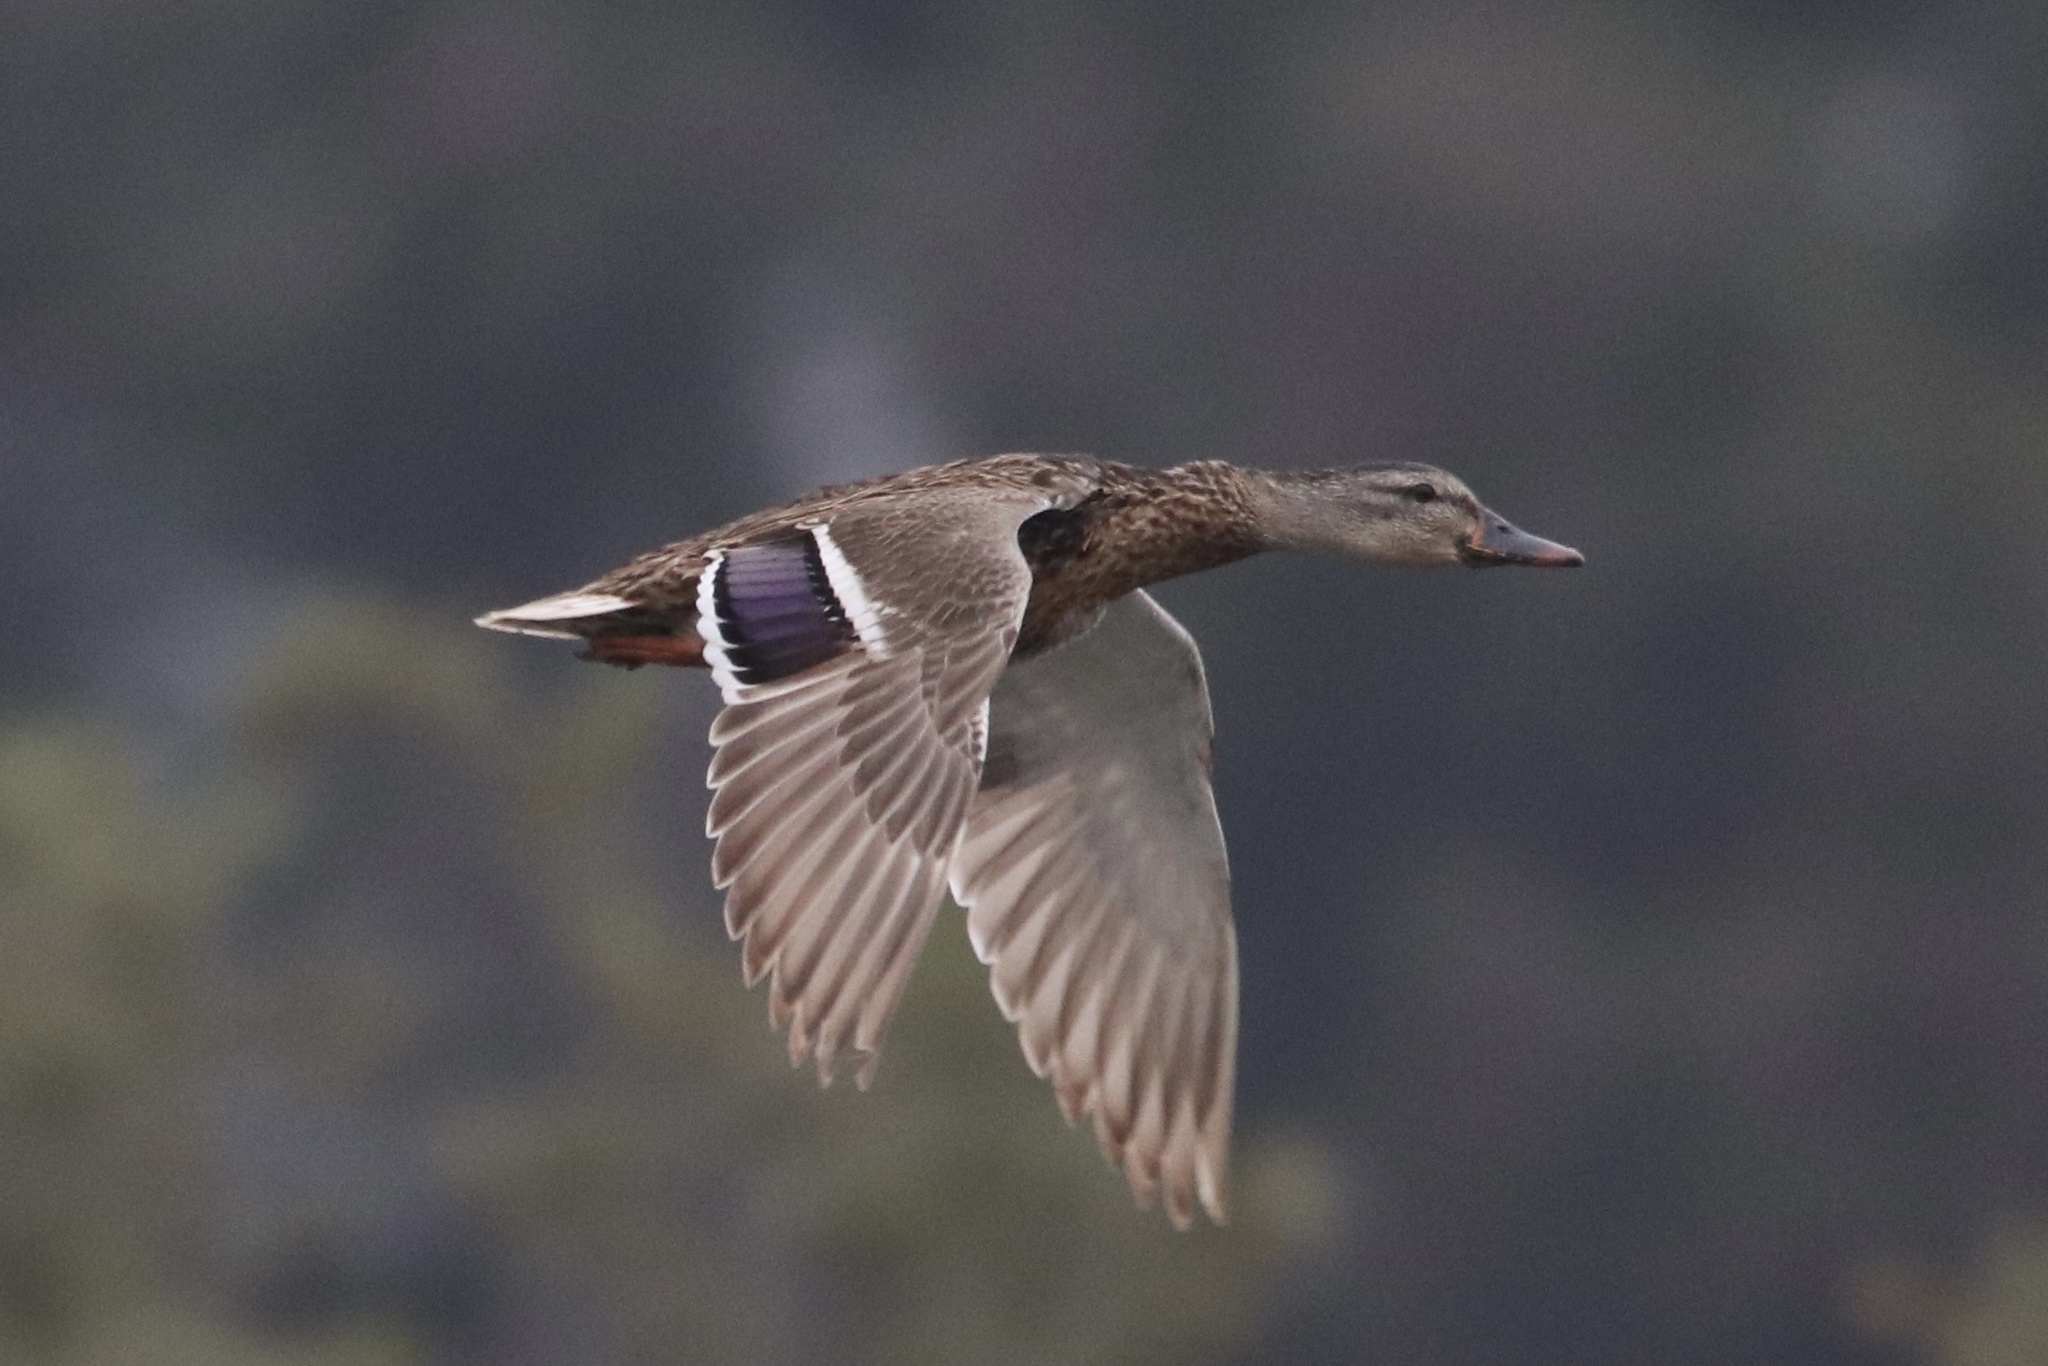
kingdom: Animalia
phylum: Chordata
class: Aves
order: Anseriformes
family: Anatidae
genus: Anas
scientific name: Anas platyrhynchos
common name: Mallard
